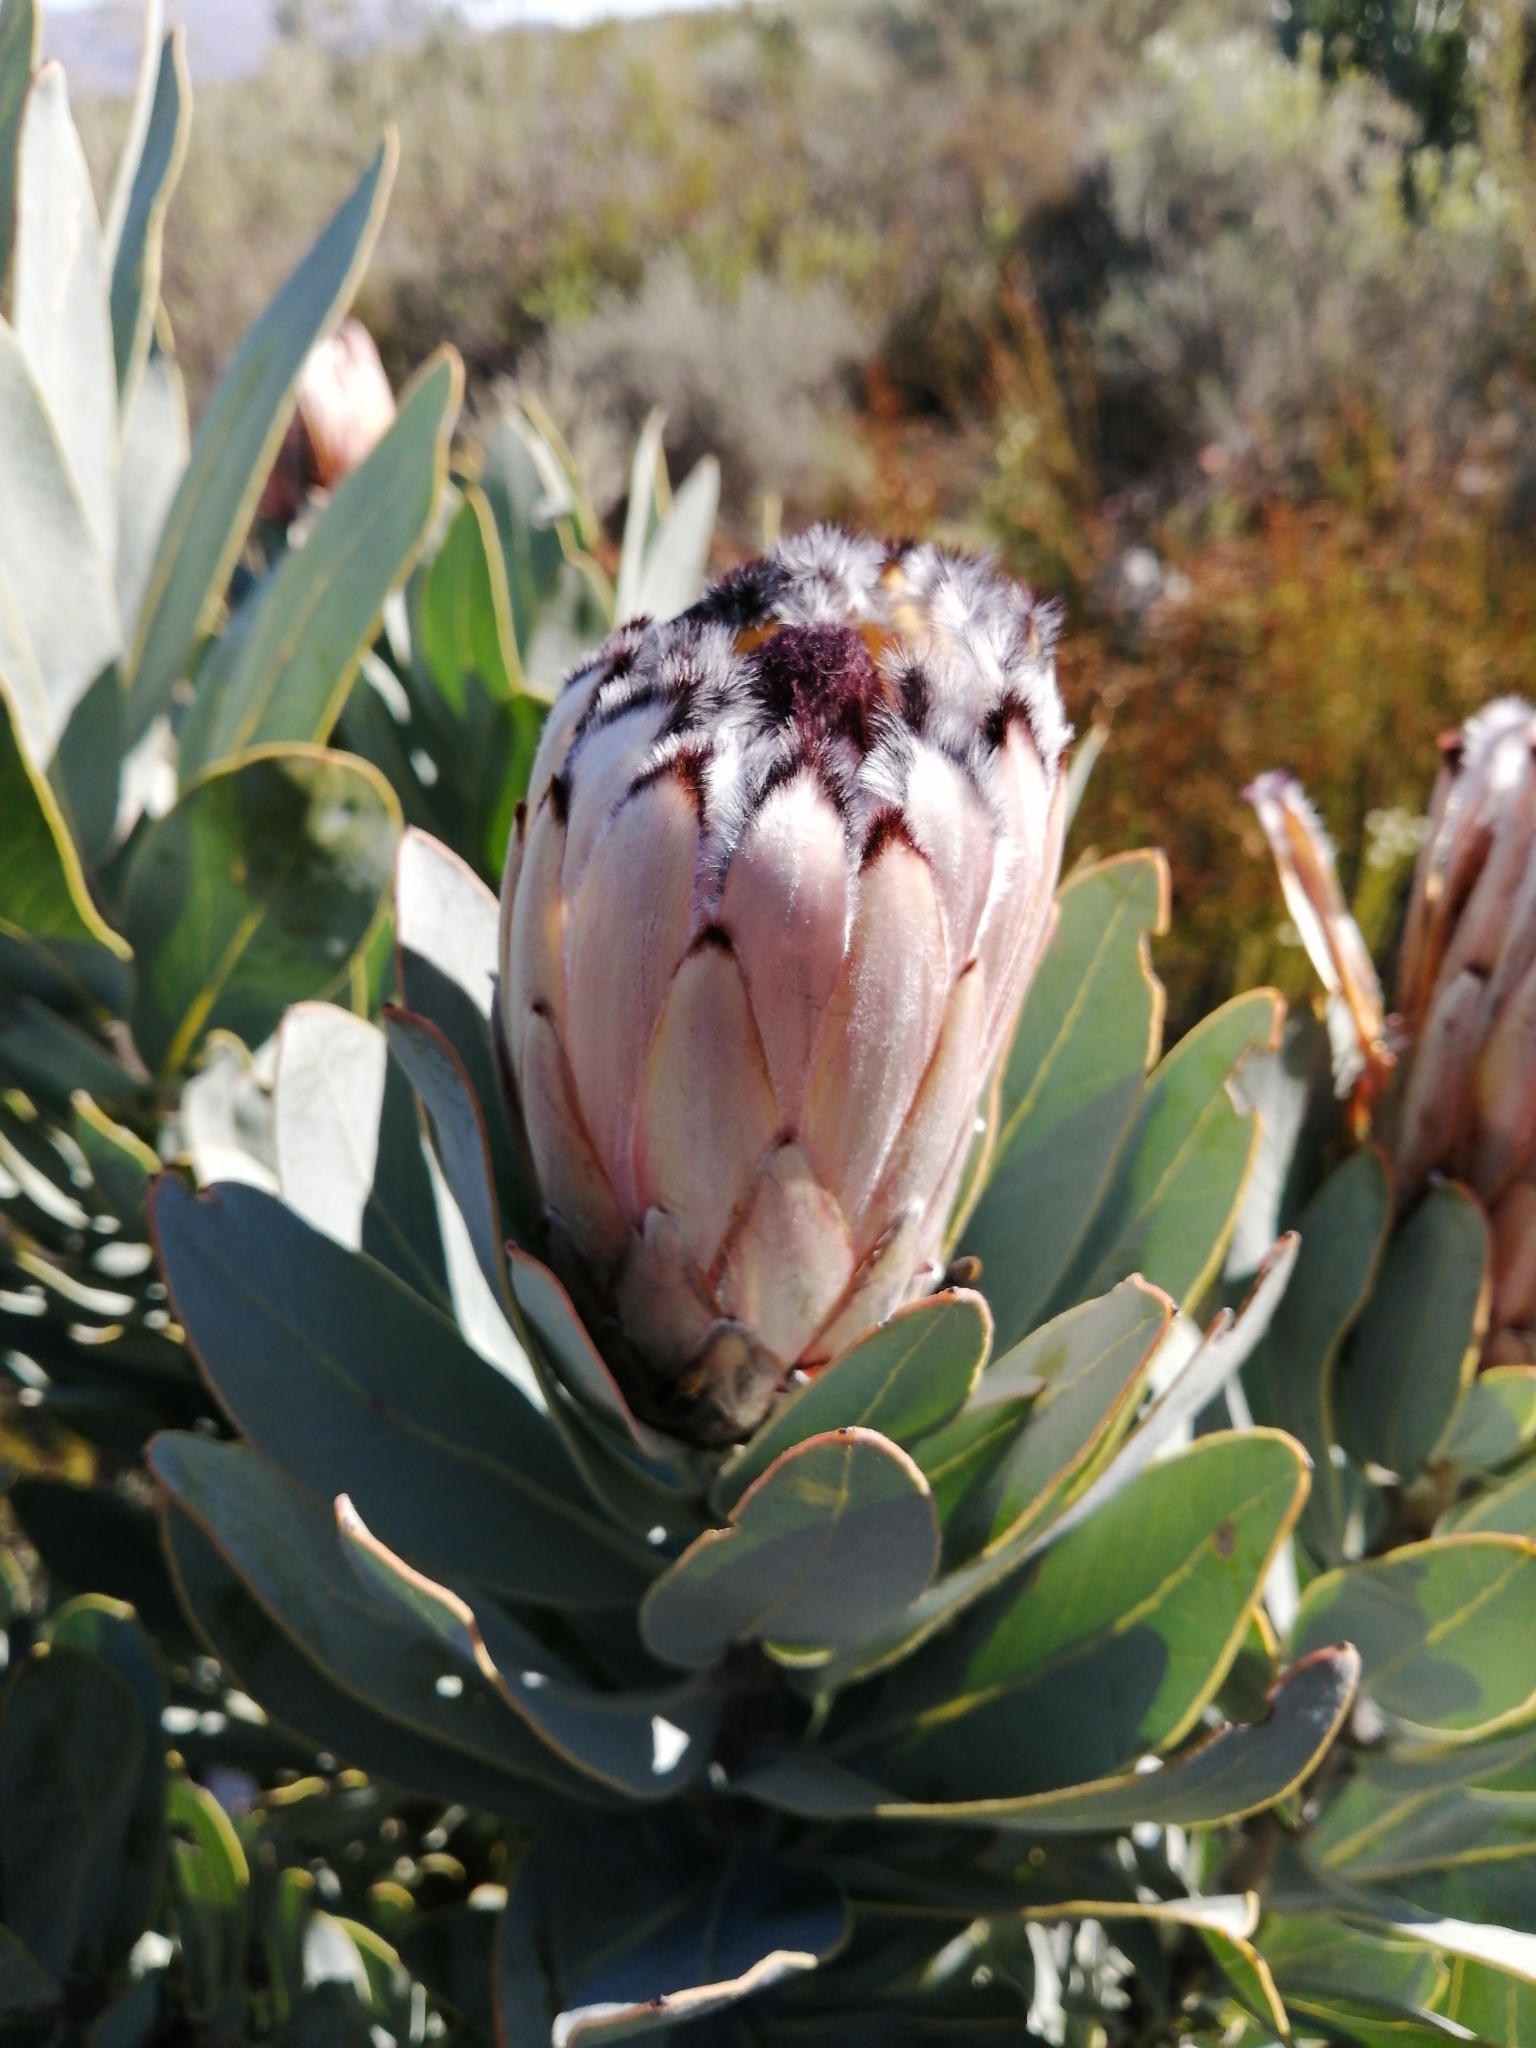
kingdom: Plantae
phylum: Tracheophyta
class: Magnoliopsida
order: Proteales
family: Proteaceae
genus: Protea
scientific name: Protea laurifolia
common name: Grey-leaf sugarbsh
